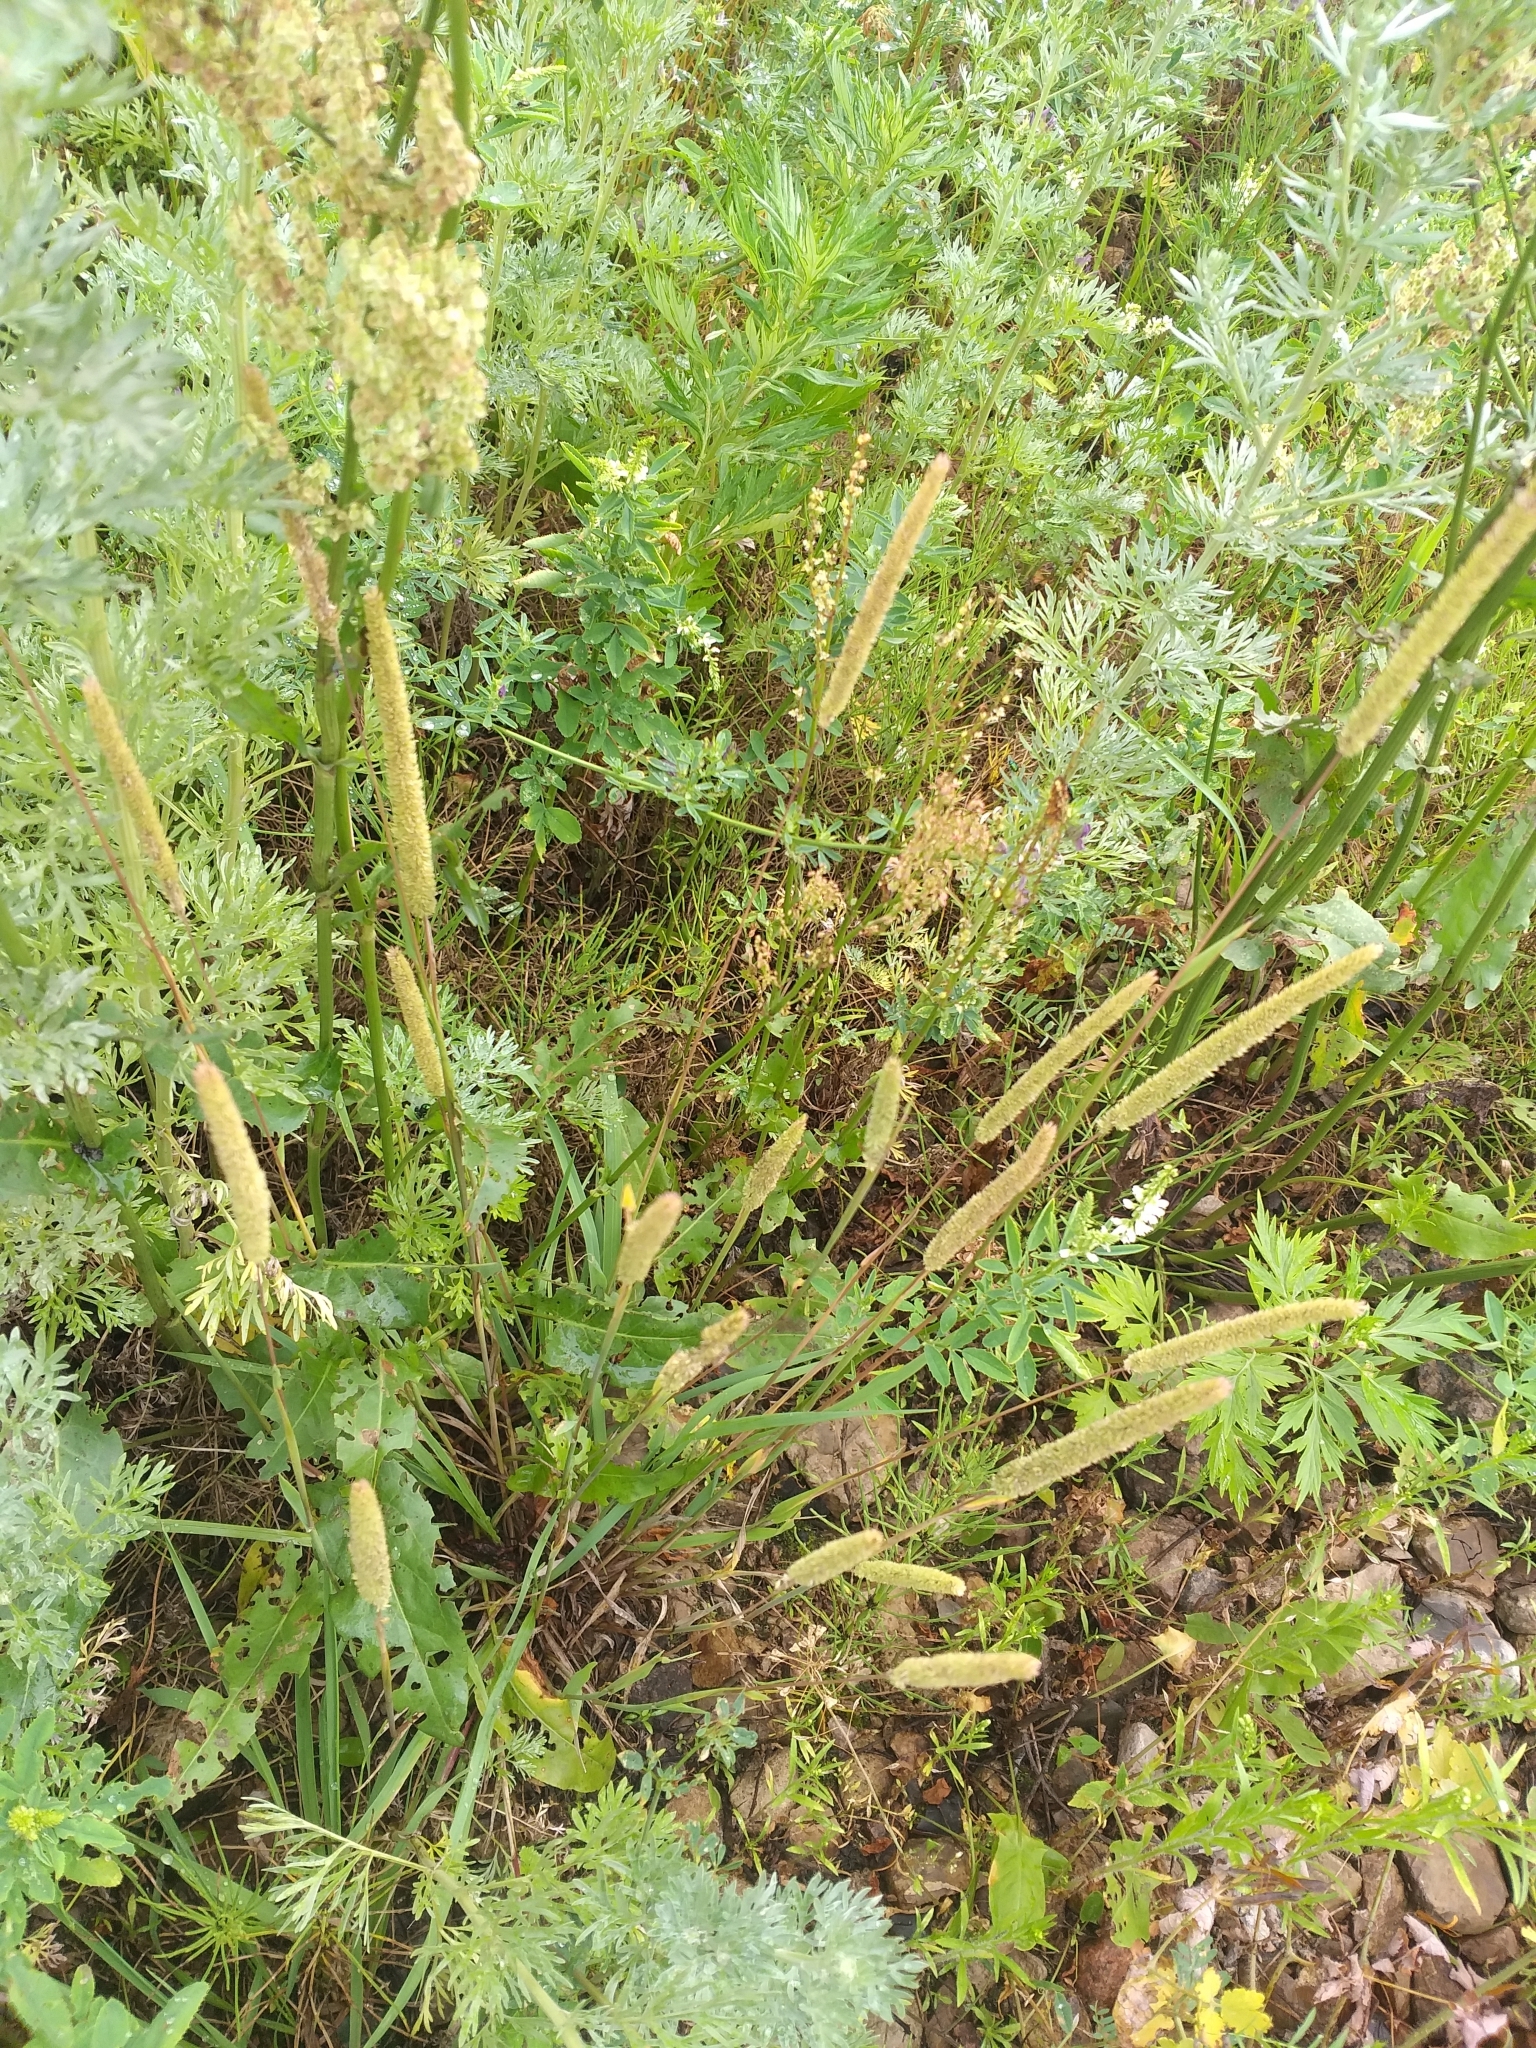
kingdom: Plantae
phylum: Tracheophyta
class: Liliopsida
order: Poales
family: Poaceae
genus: Phleum
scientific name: Phleum phleoides
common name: Purple-stem cat's-tail
